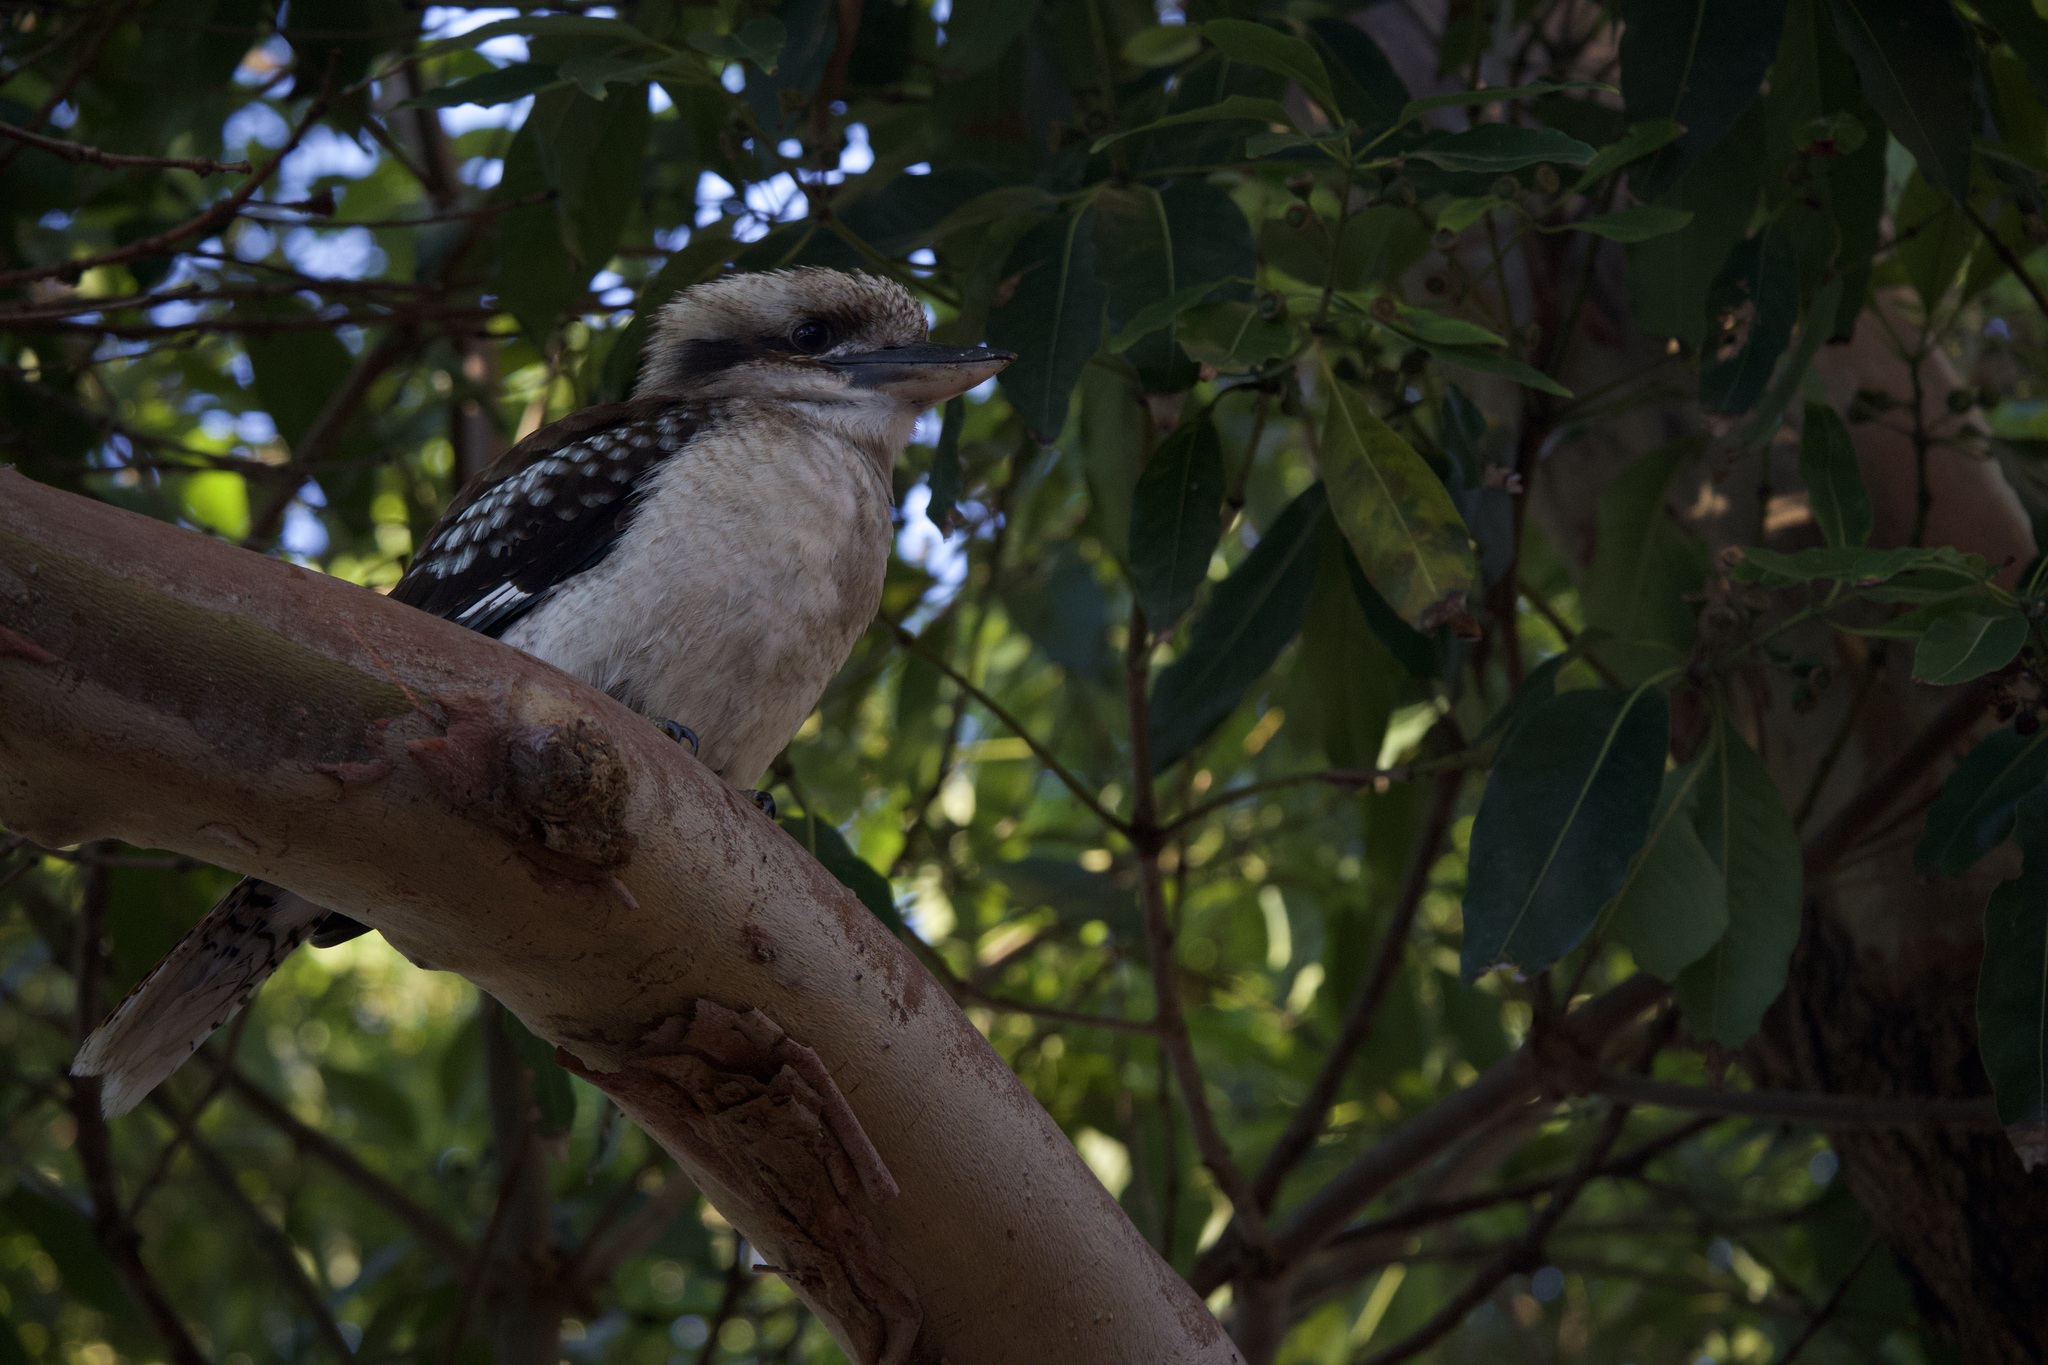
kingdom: Animalia
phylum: Chordata
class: Aves
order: Coraciiformes
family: Alcedinidae
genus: Dacelo
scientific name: Dacelo novaeguineae
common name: Laughing kookaburra
